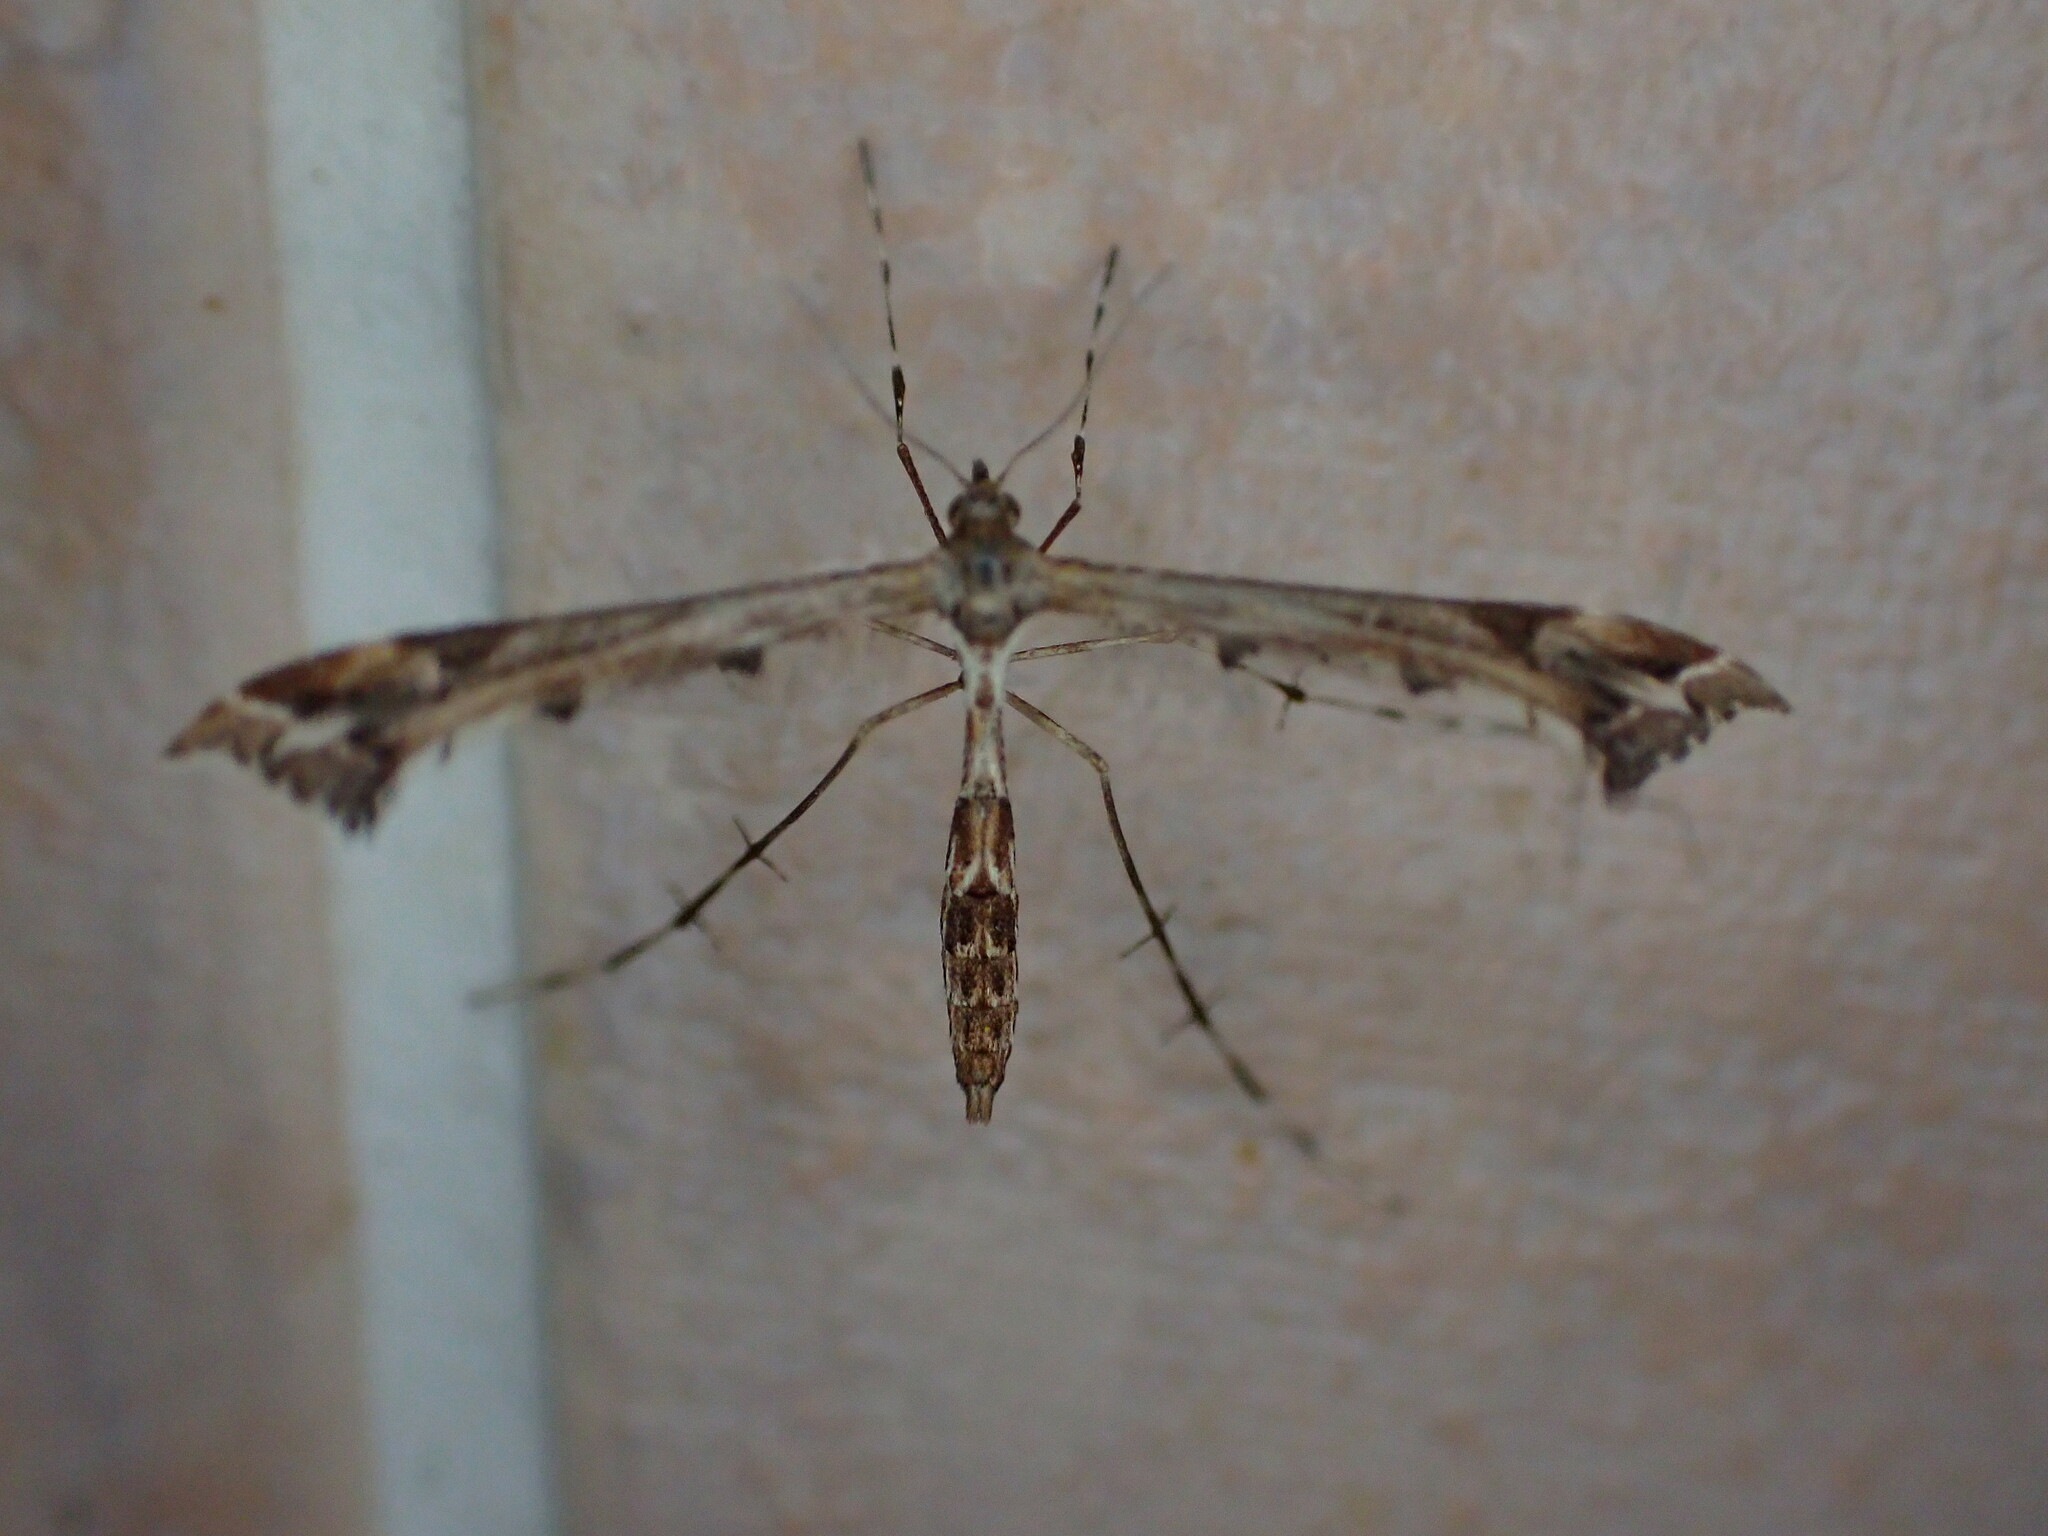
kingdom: Animalia
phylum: Arthropoda
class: Insecta
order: Lepidoptera
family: Pterophoridae
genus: Amblyptilia
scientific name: Amblyptilia acanthadactyla
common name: Beautiful plume
